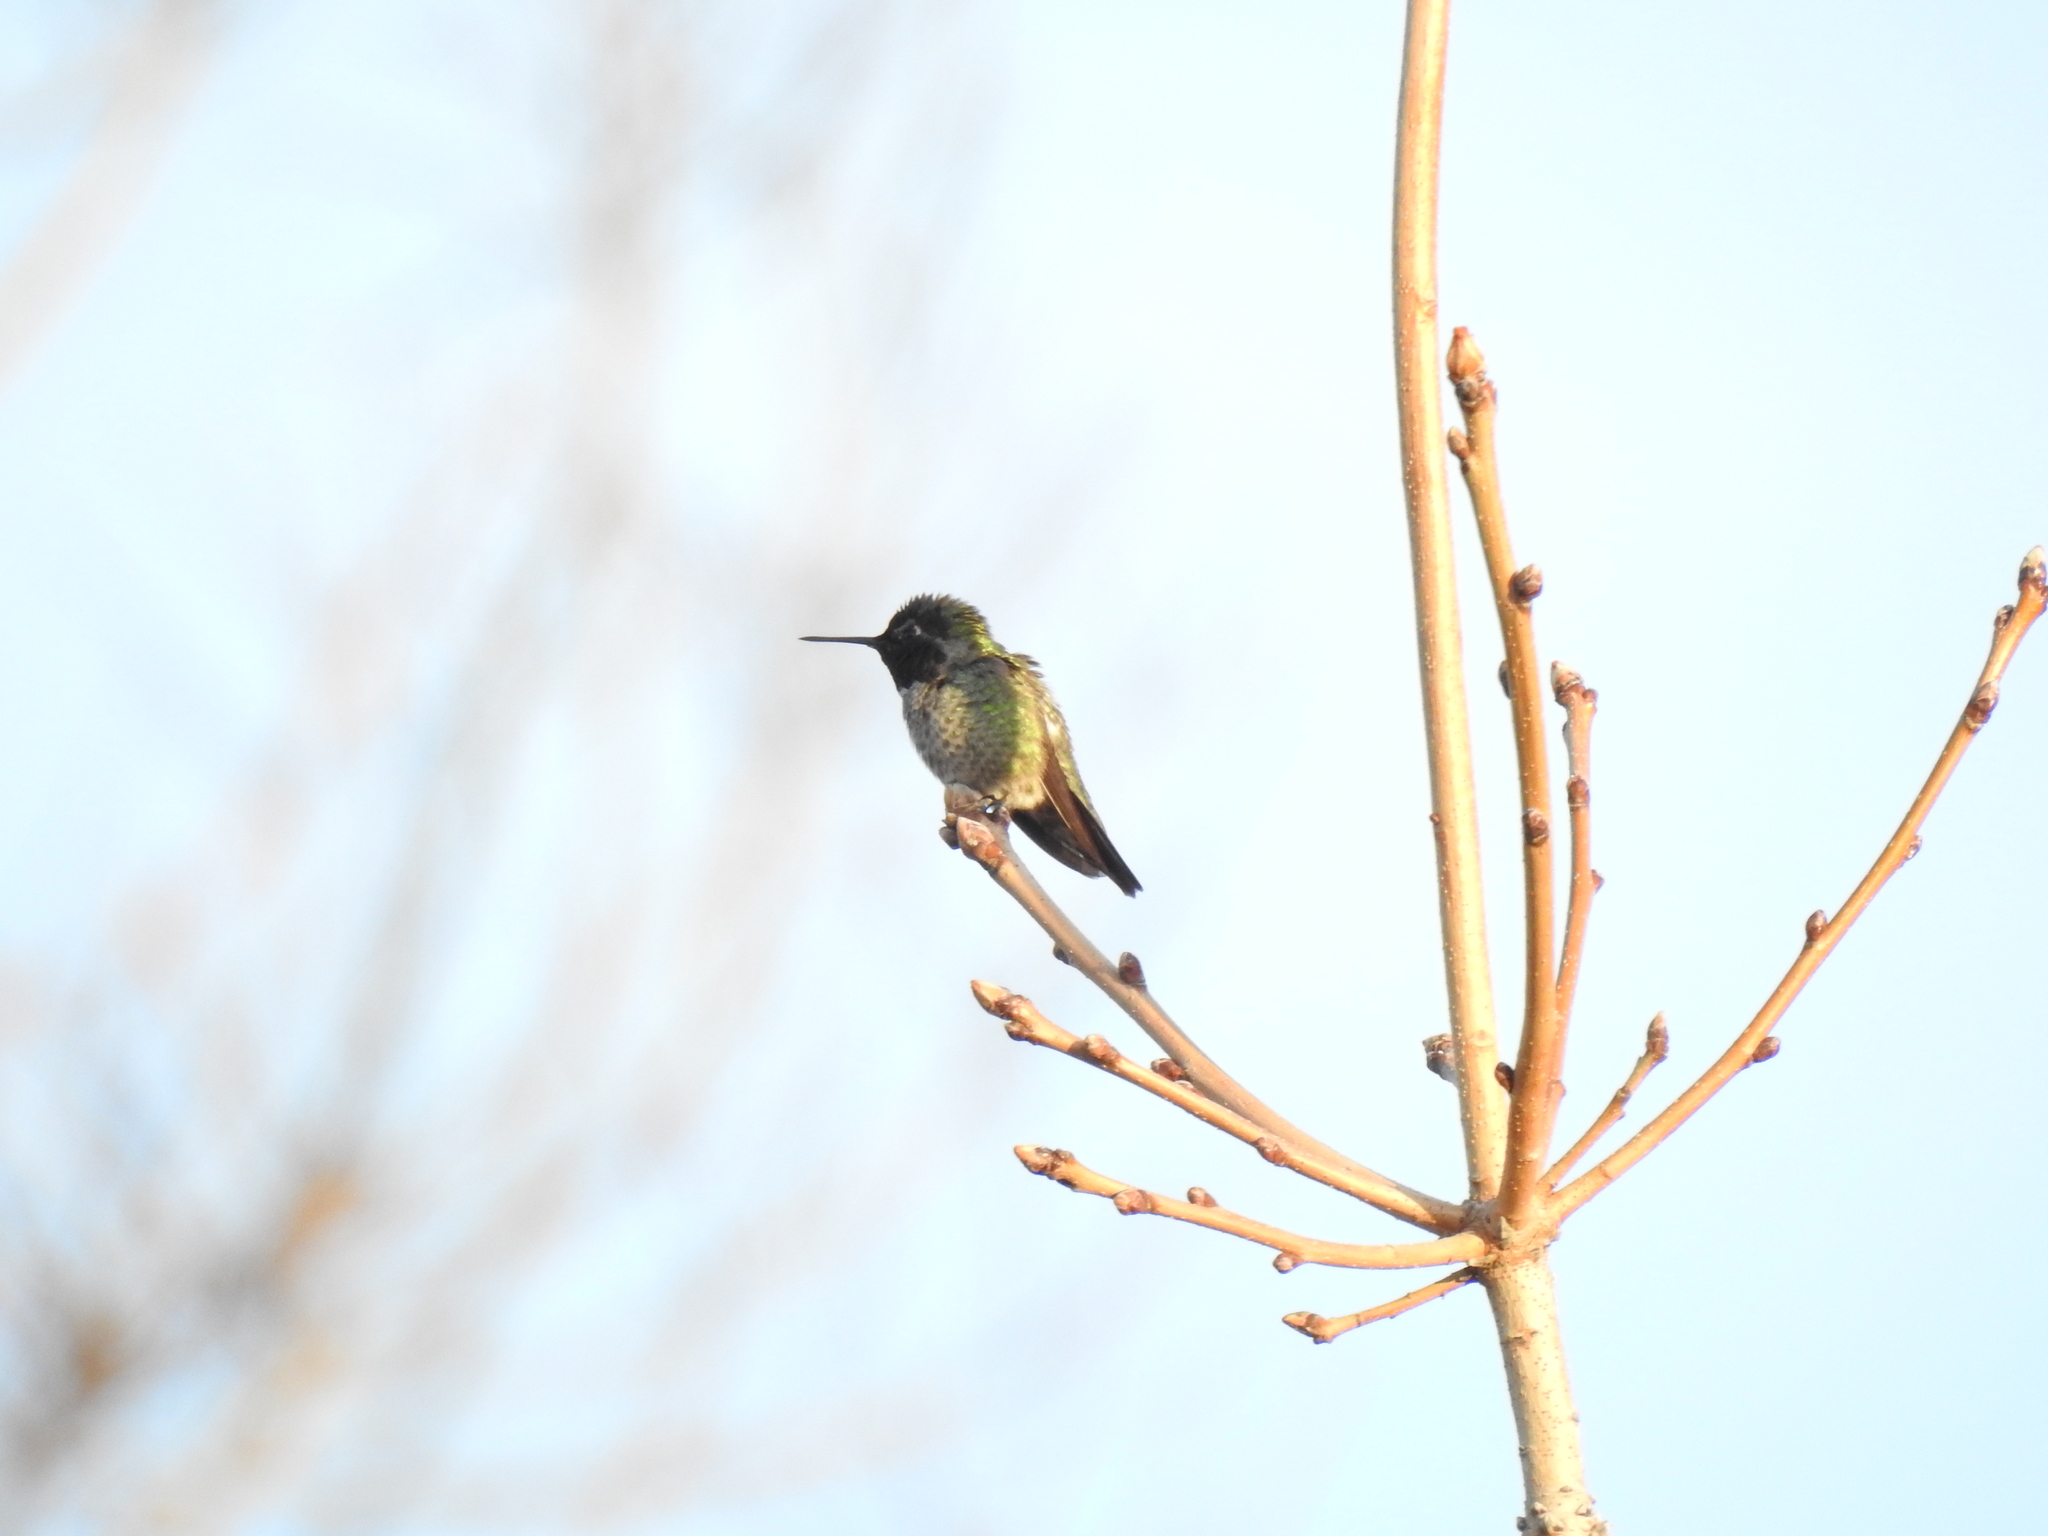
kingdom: Animalia
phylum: Chordata
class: Aves
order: Apodiformes
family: Trochilidae
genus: Calypte
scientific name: Calypte anna
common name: Anna's hummingbird
